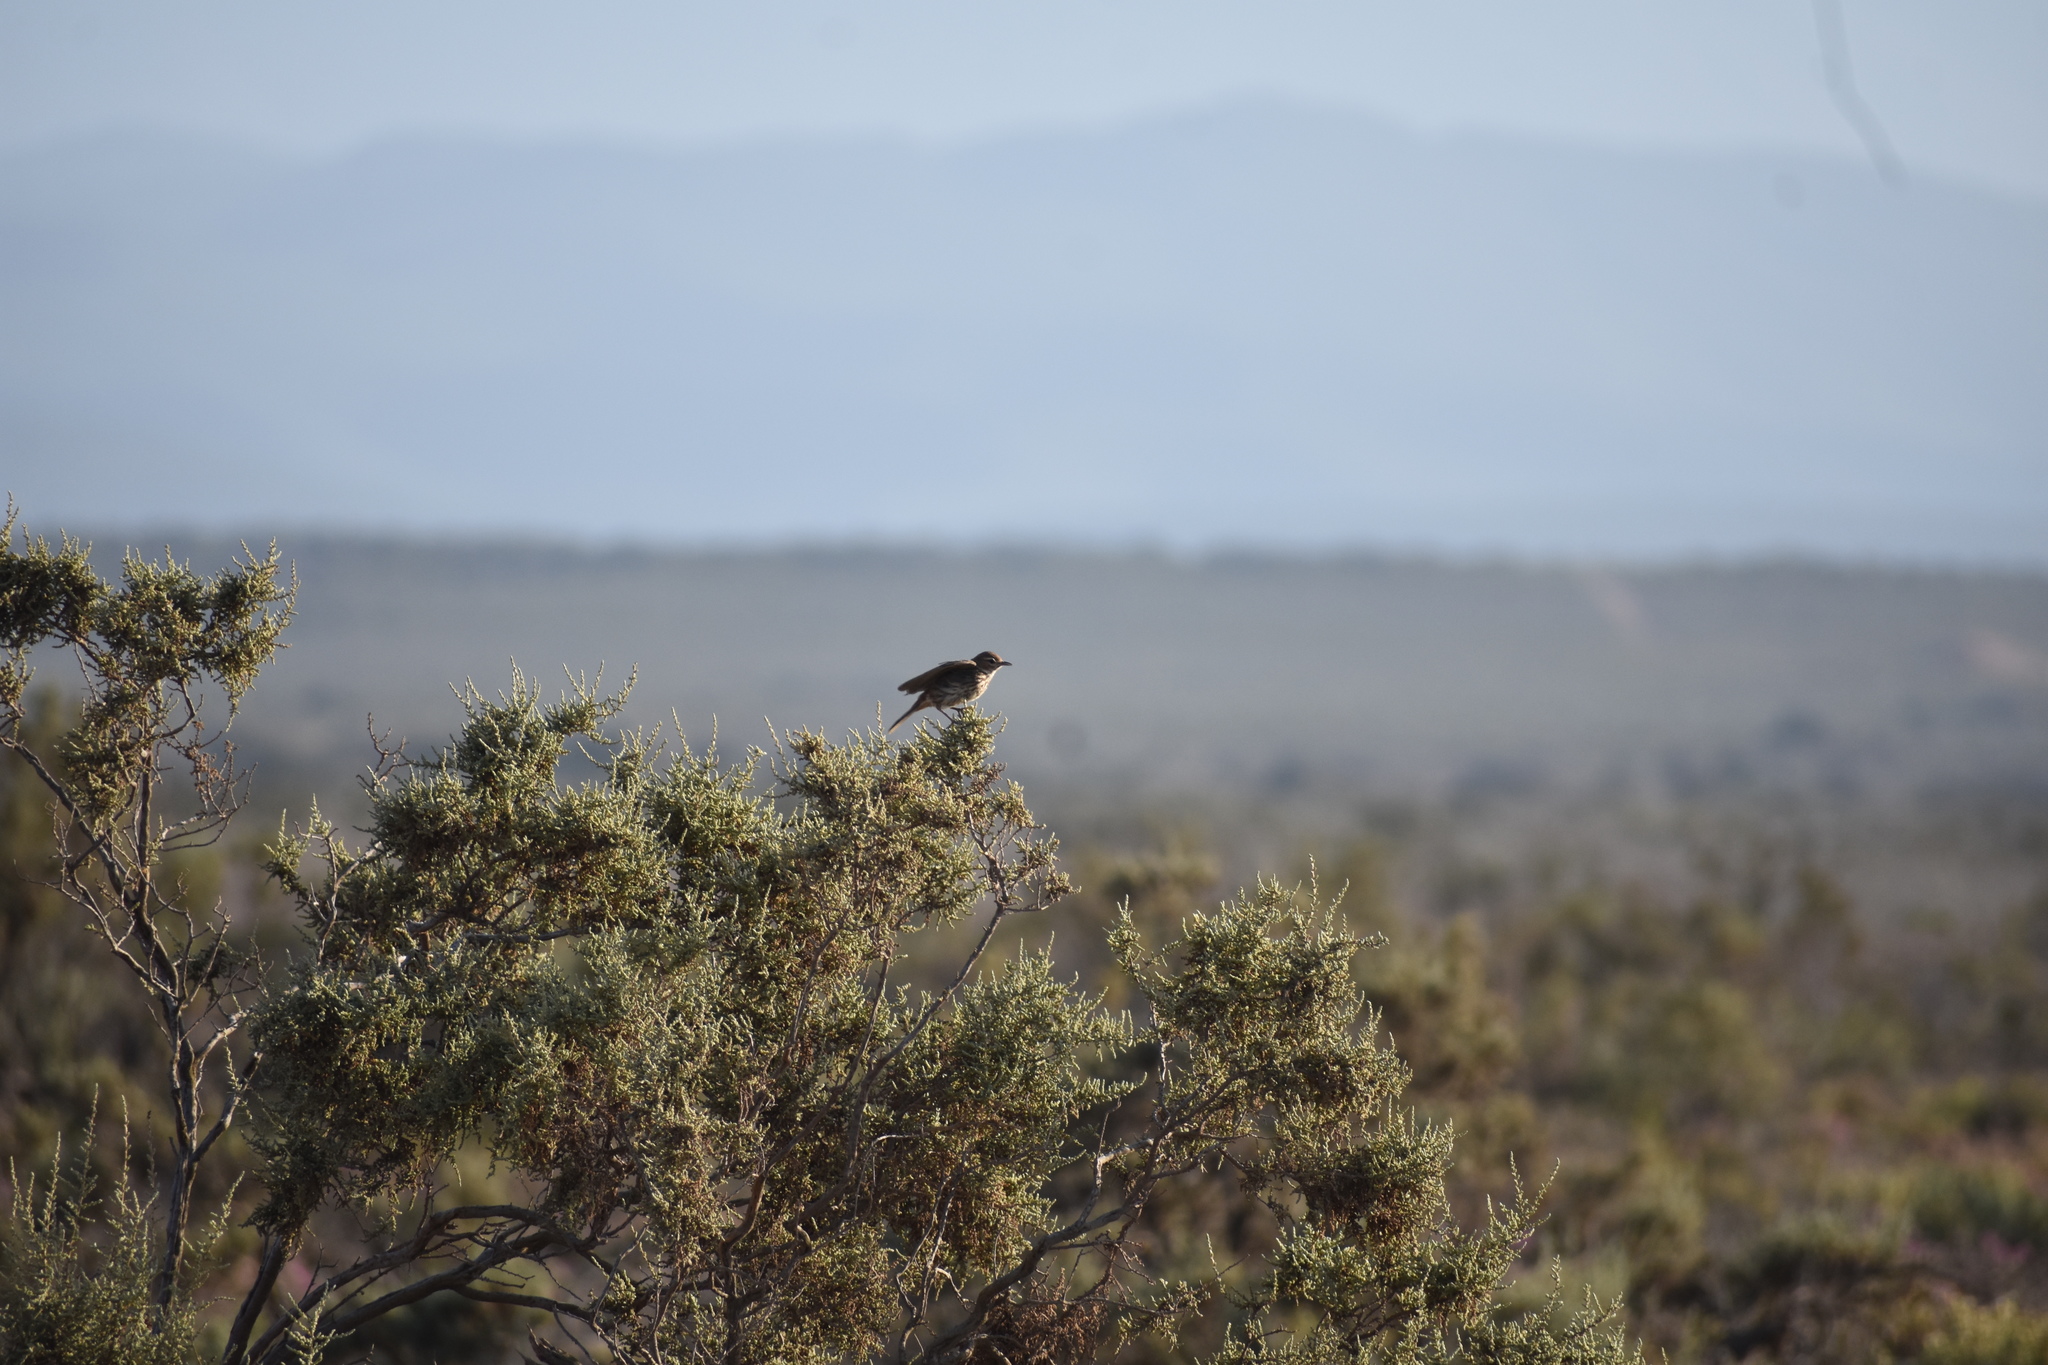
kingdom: Animalia
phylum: Chordata
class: Aves
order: Passeriformes
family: Alaudidae
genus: Calendulauda
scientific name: Calendulauda albescens
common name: Karoo lark
